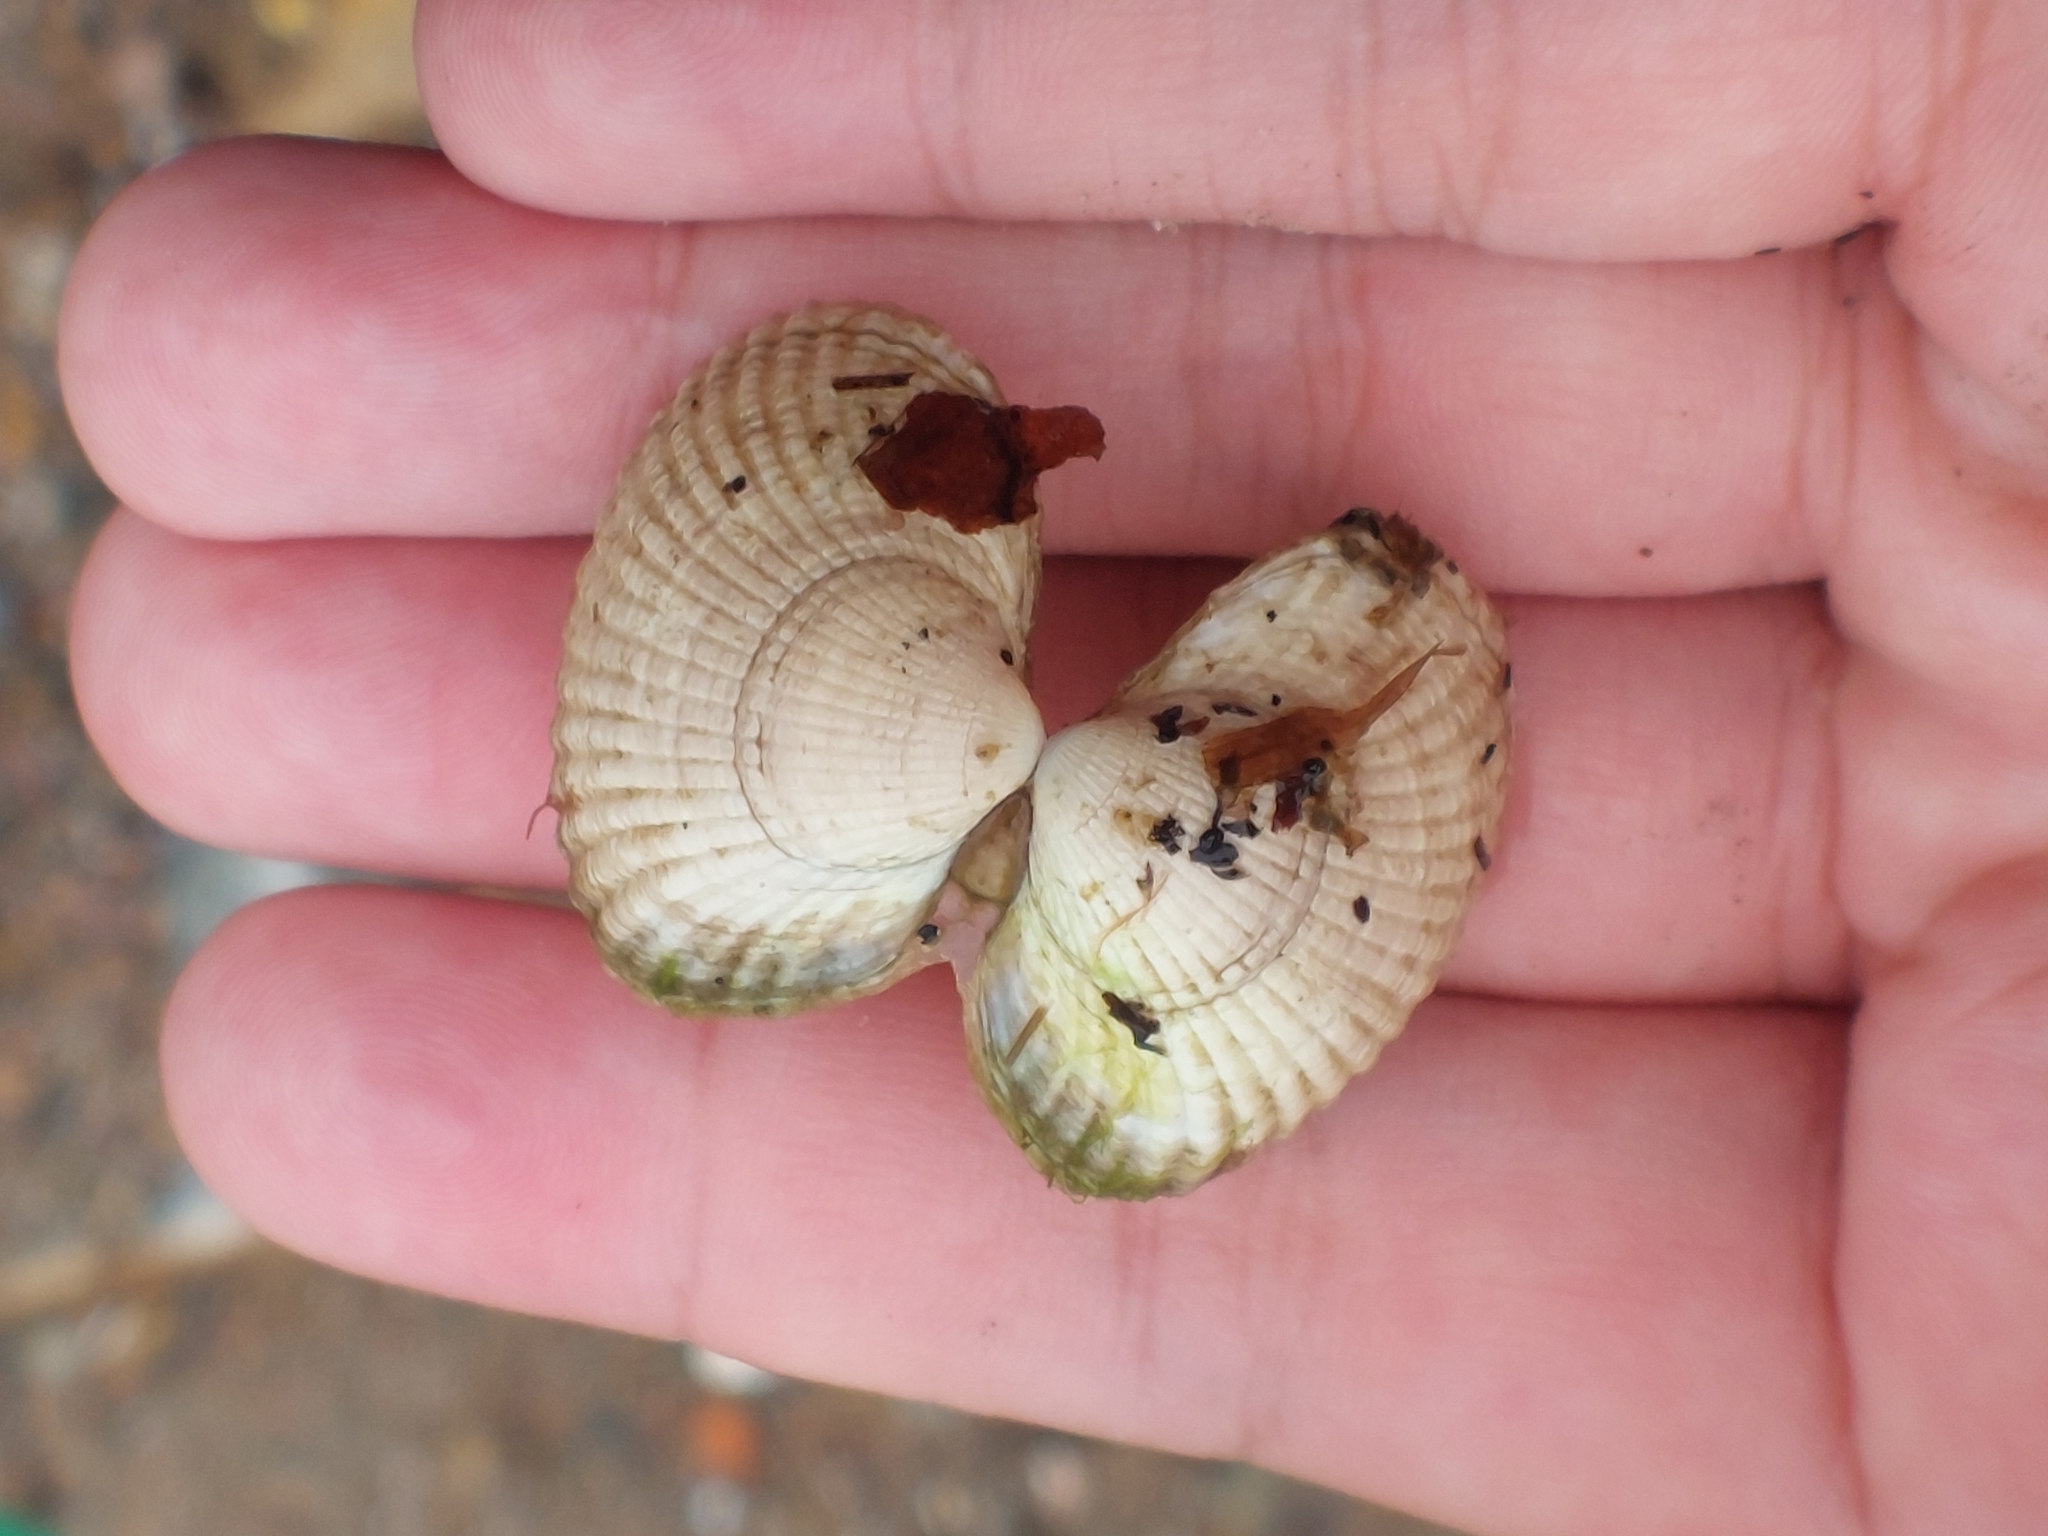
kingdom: Animalia
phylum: Mollusca
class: Bivalvia
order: Cardiida
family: Cardiidae
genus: Cerastoderma
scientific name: Cerastoderma edule
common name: Common cockle
